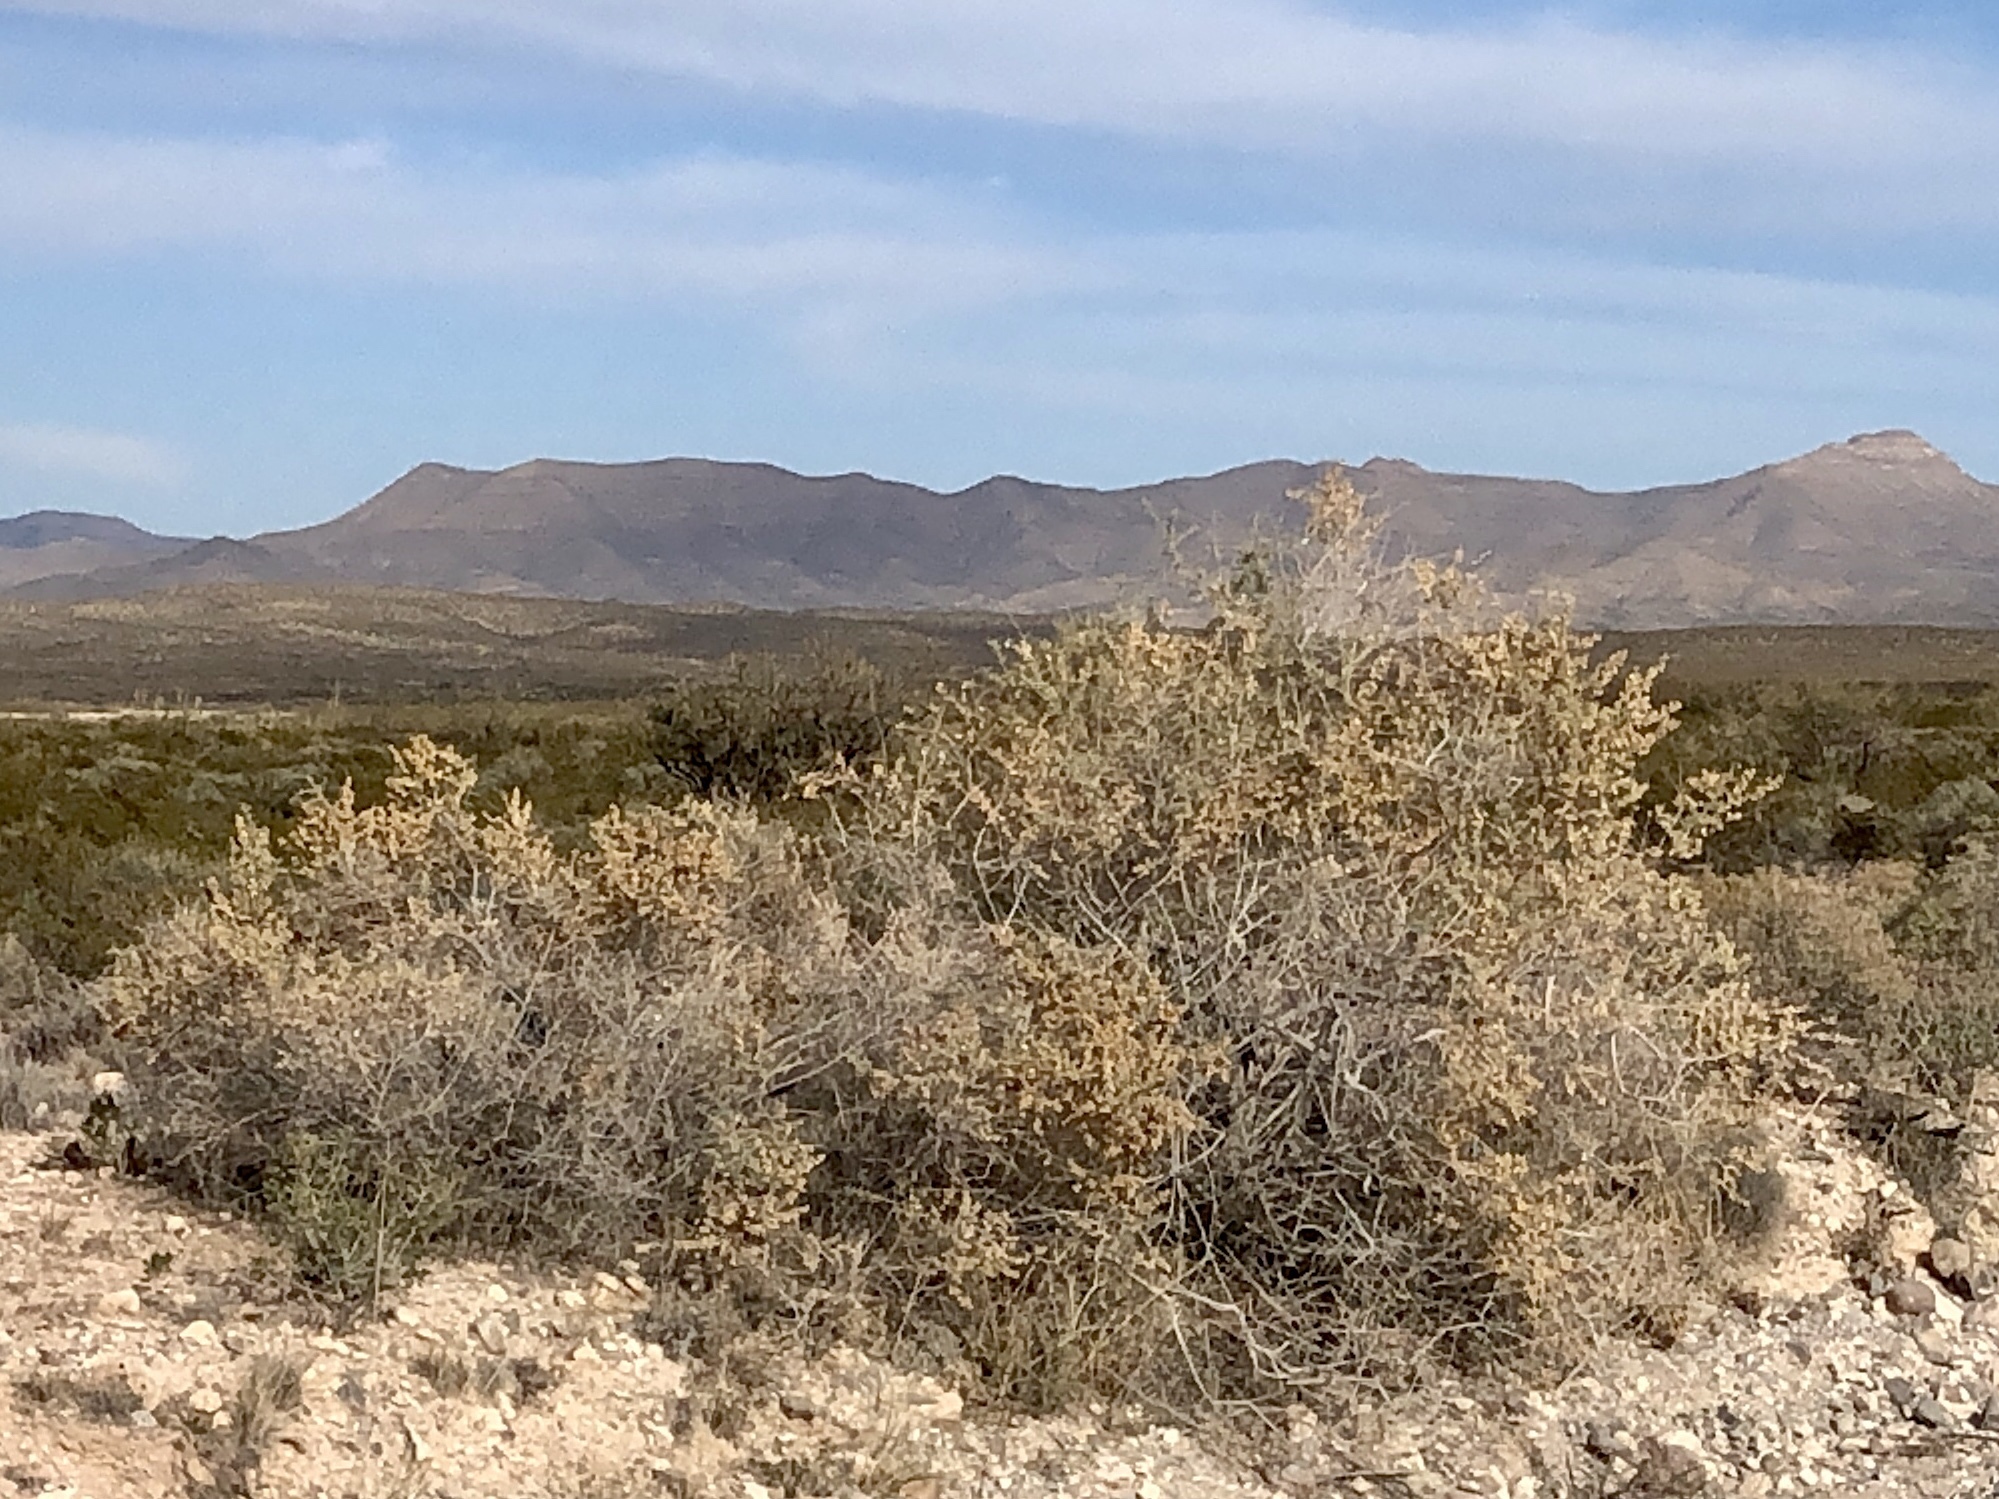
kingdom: Plantae
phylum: Tracheophyta
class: Magnoliopsida
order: Caryophyllales
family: Amaranthaceae
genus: Atriplex
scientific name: Atriplex canescens
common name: Four-wing saltbush
